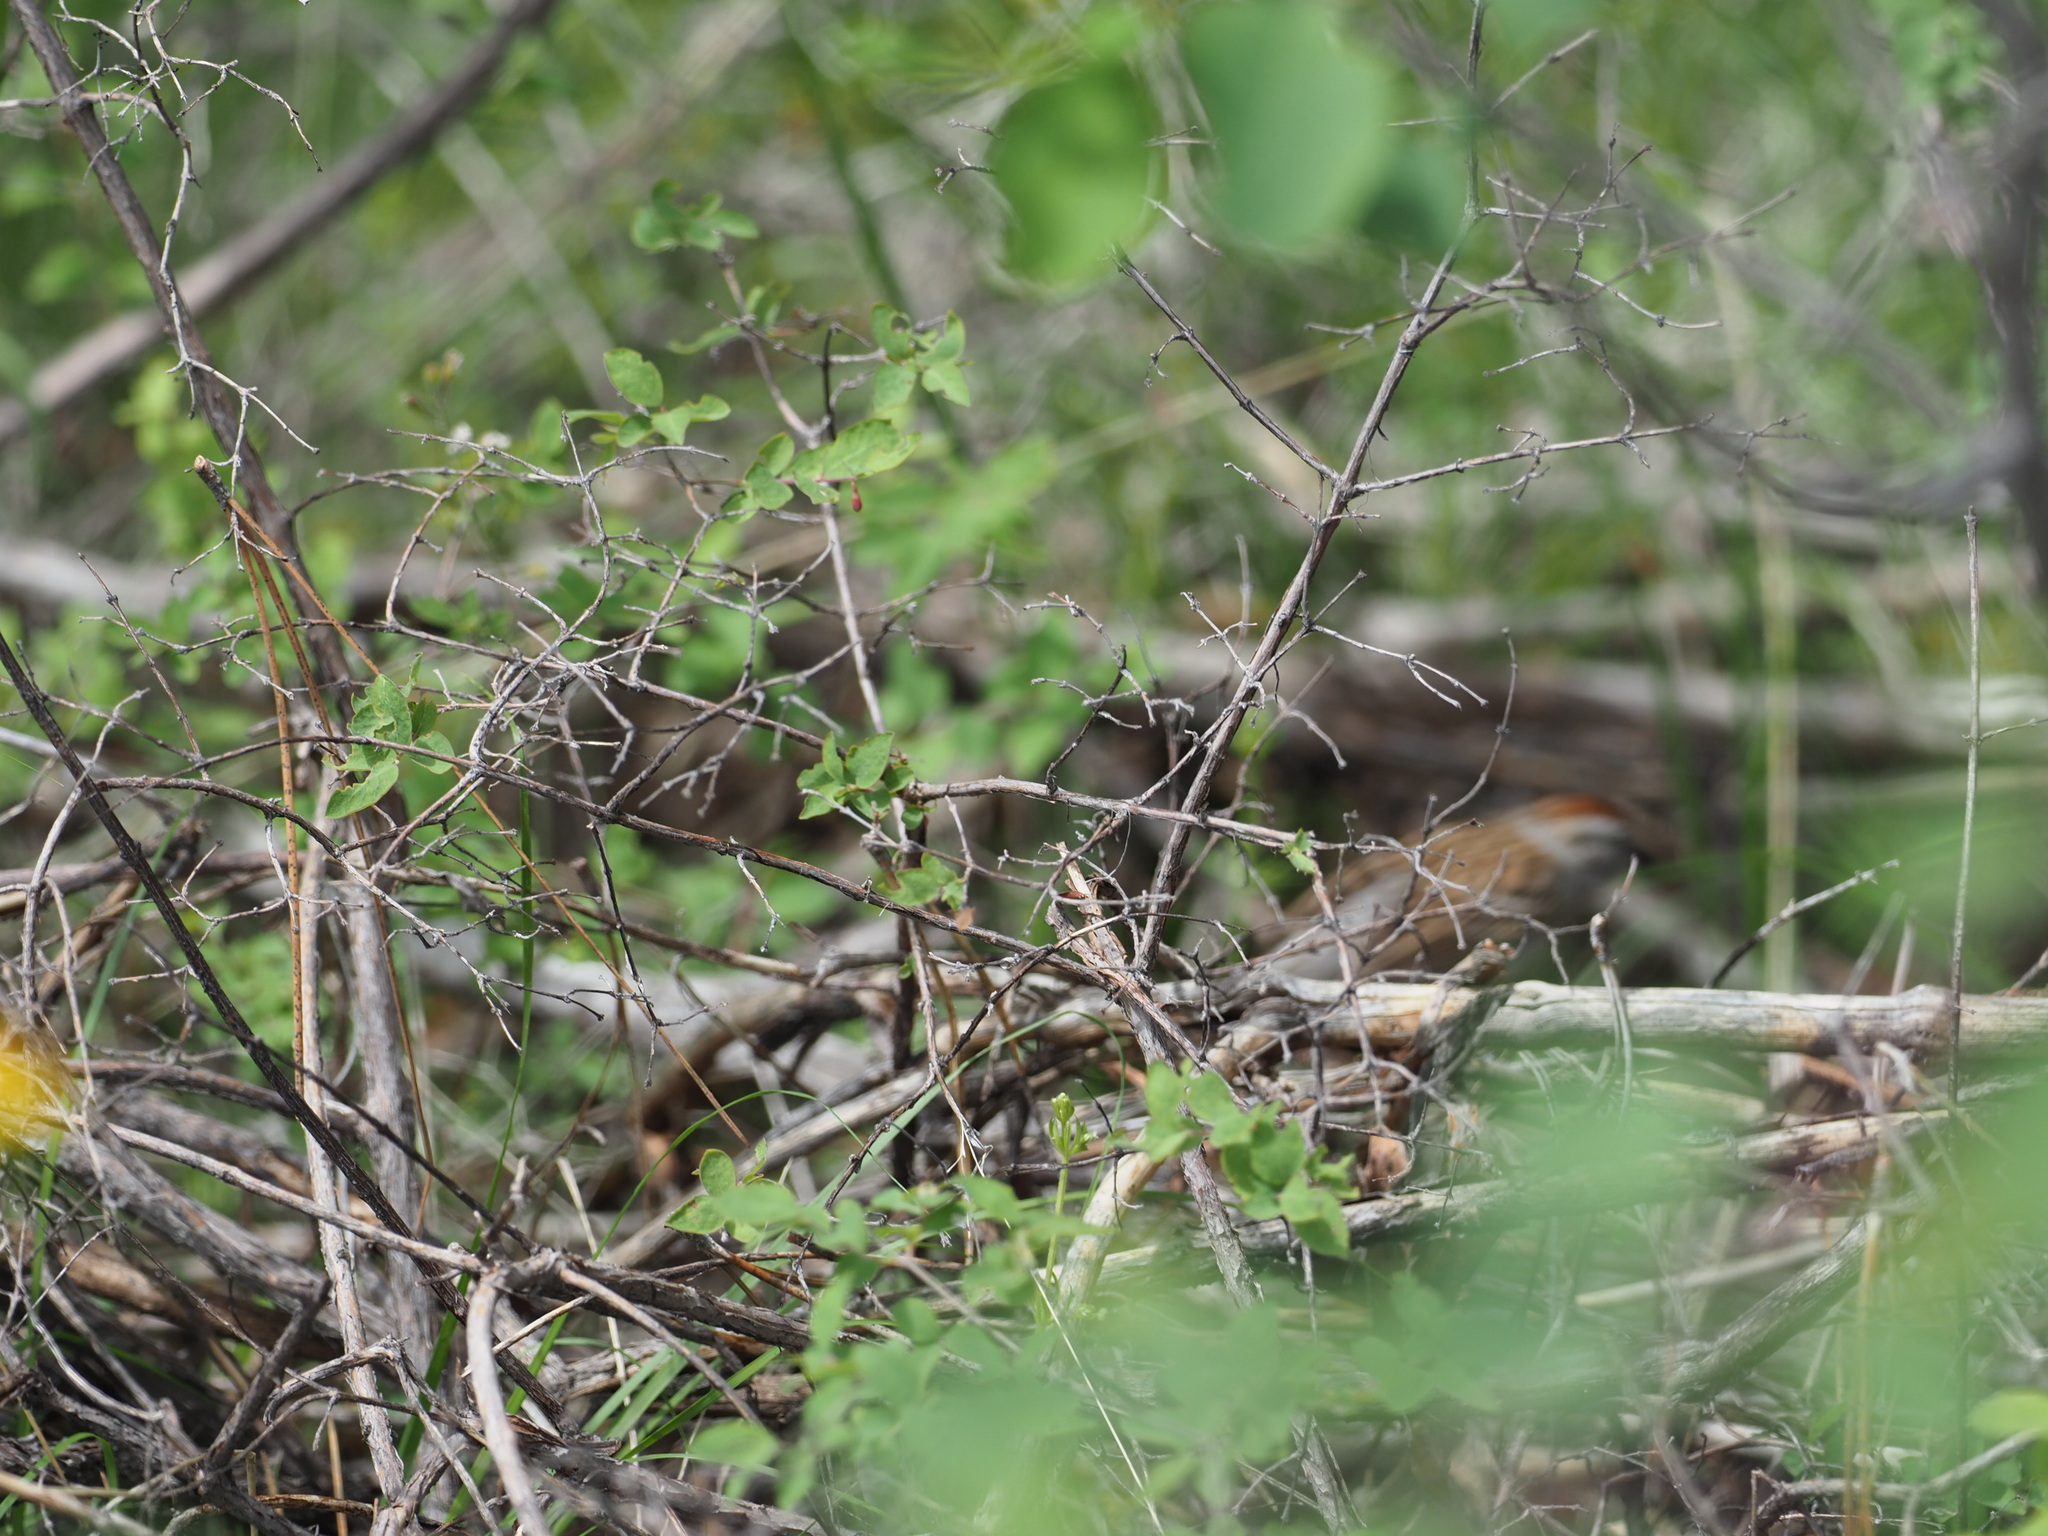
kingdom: Animalia
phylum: Chordata
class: Aves
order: Passeriformes
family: Passerellidae
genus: Spizella
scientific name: Spizella passerina
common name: Chipping sparrow
